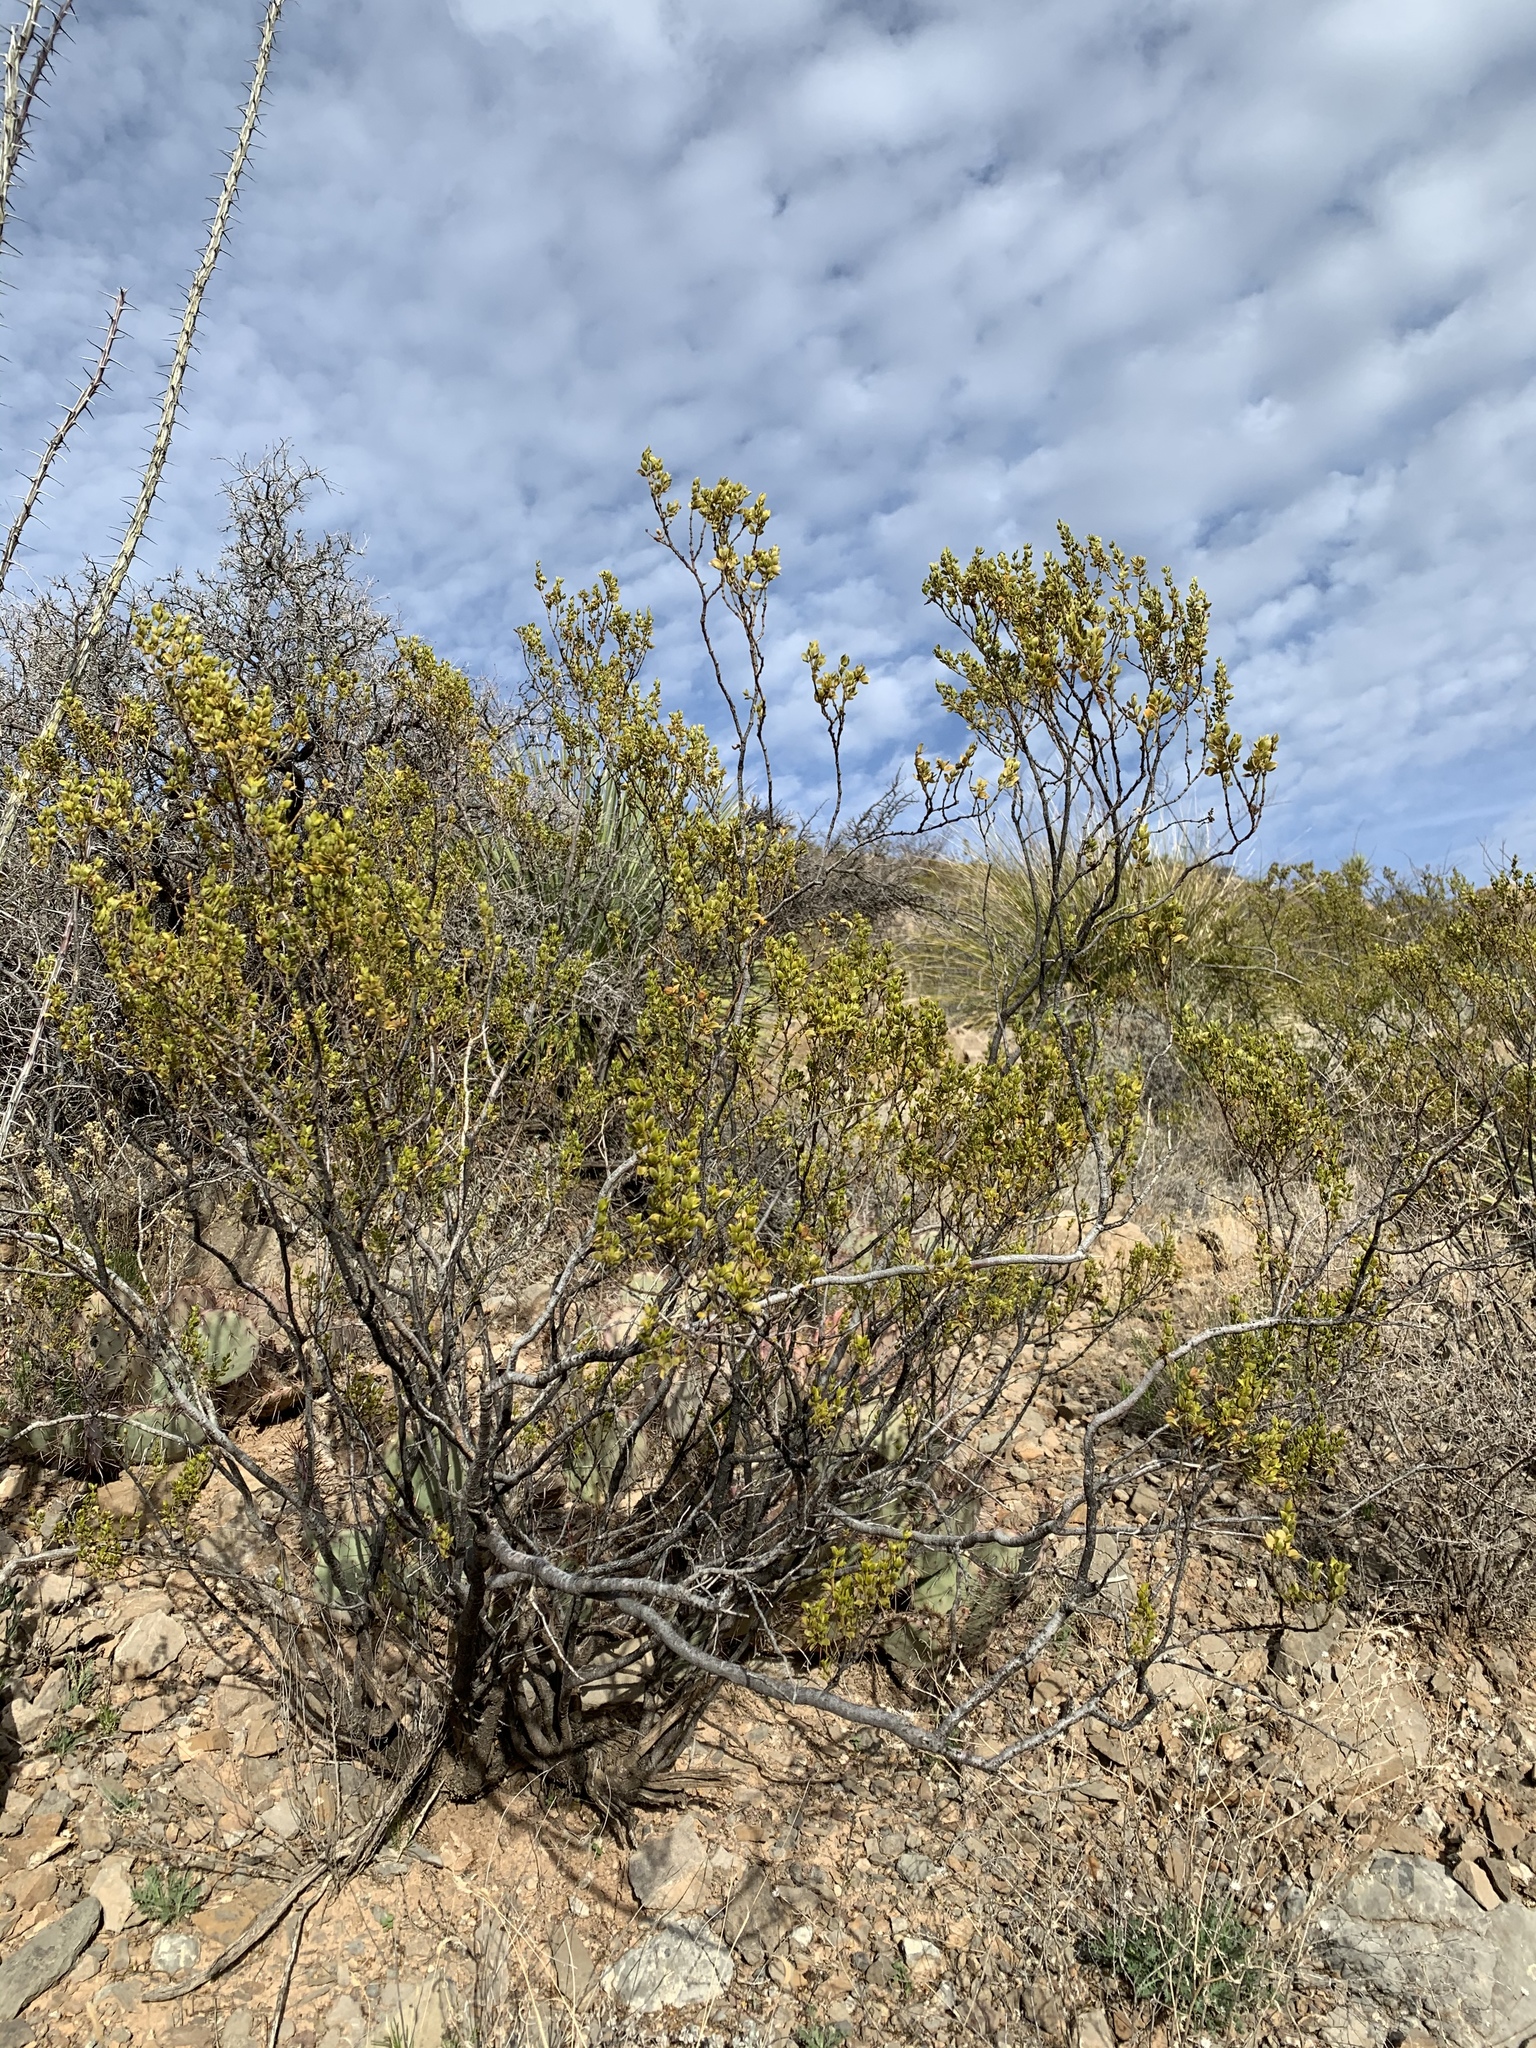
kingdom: Plantae
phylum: Tracheophyta
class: Magnoliopsida
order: Zygophyllales
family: Zygophyllaceae
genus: Larrea
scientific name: Larrea tridentata
